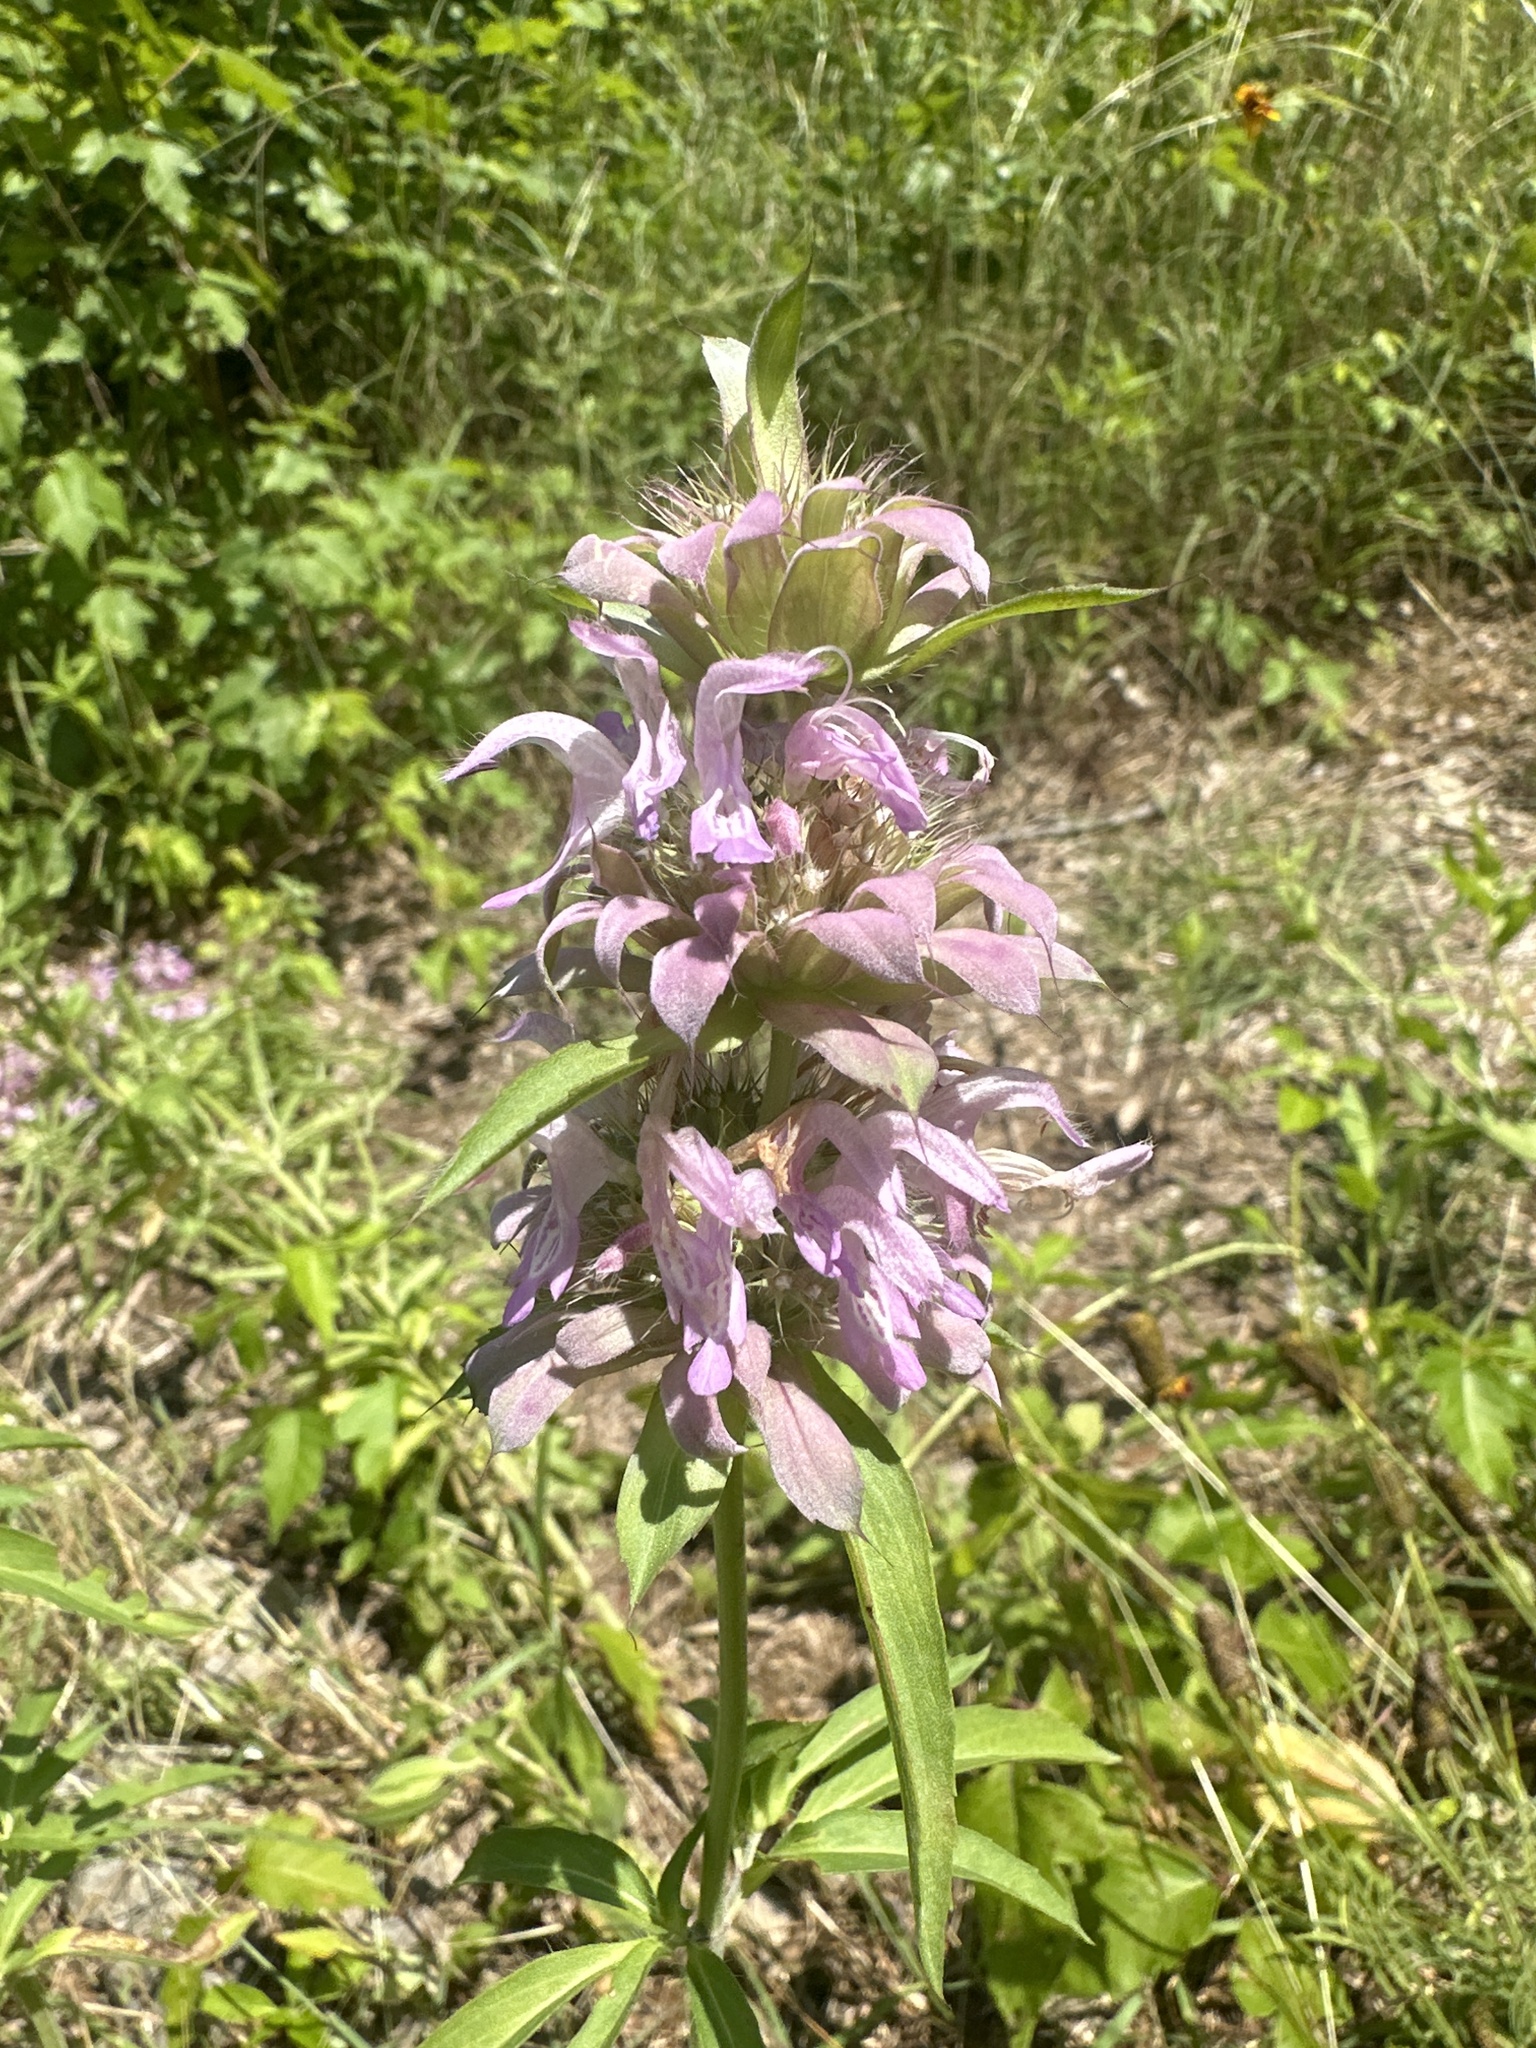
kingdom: Plantae
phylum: Tracheophyta
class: Magnoliopsida
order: Lamiales
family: Lamiaceae
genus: Monarda
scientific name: Monarda citriodora
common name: Lemon beebalm
